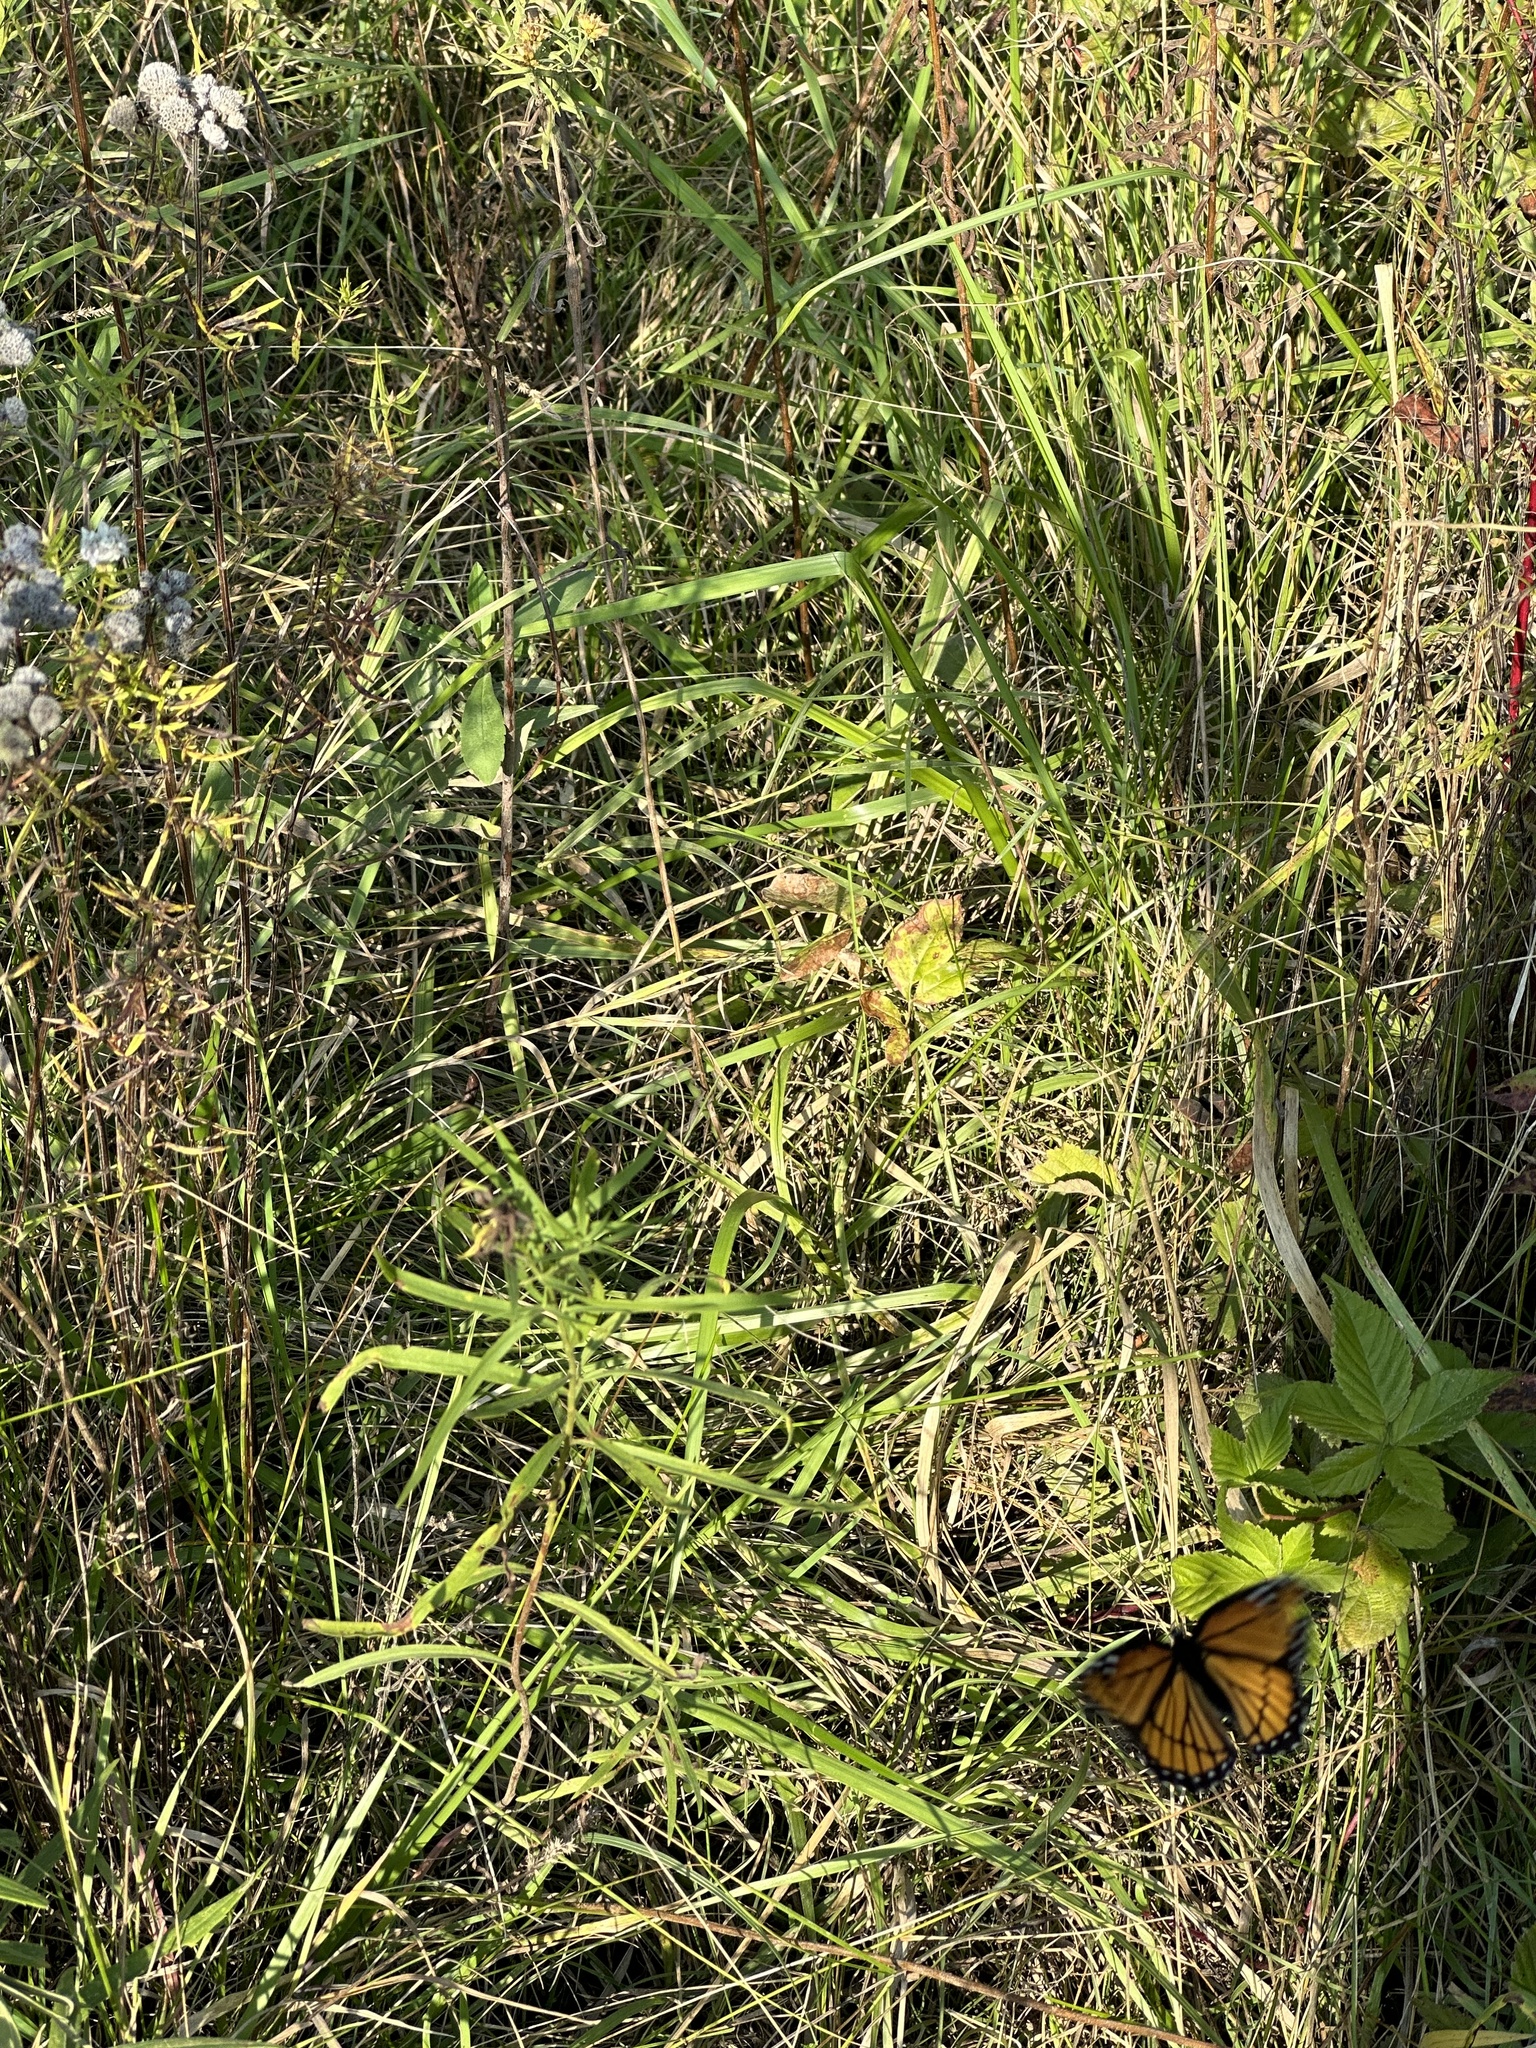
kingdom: Animalia
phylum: Arthropoda
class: Insecta
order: Lepidoptera
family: Nymphalidae
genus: Limenitis
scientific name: Limenitis archippus
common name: Viceroy
